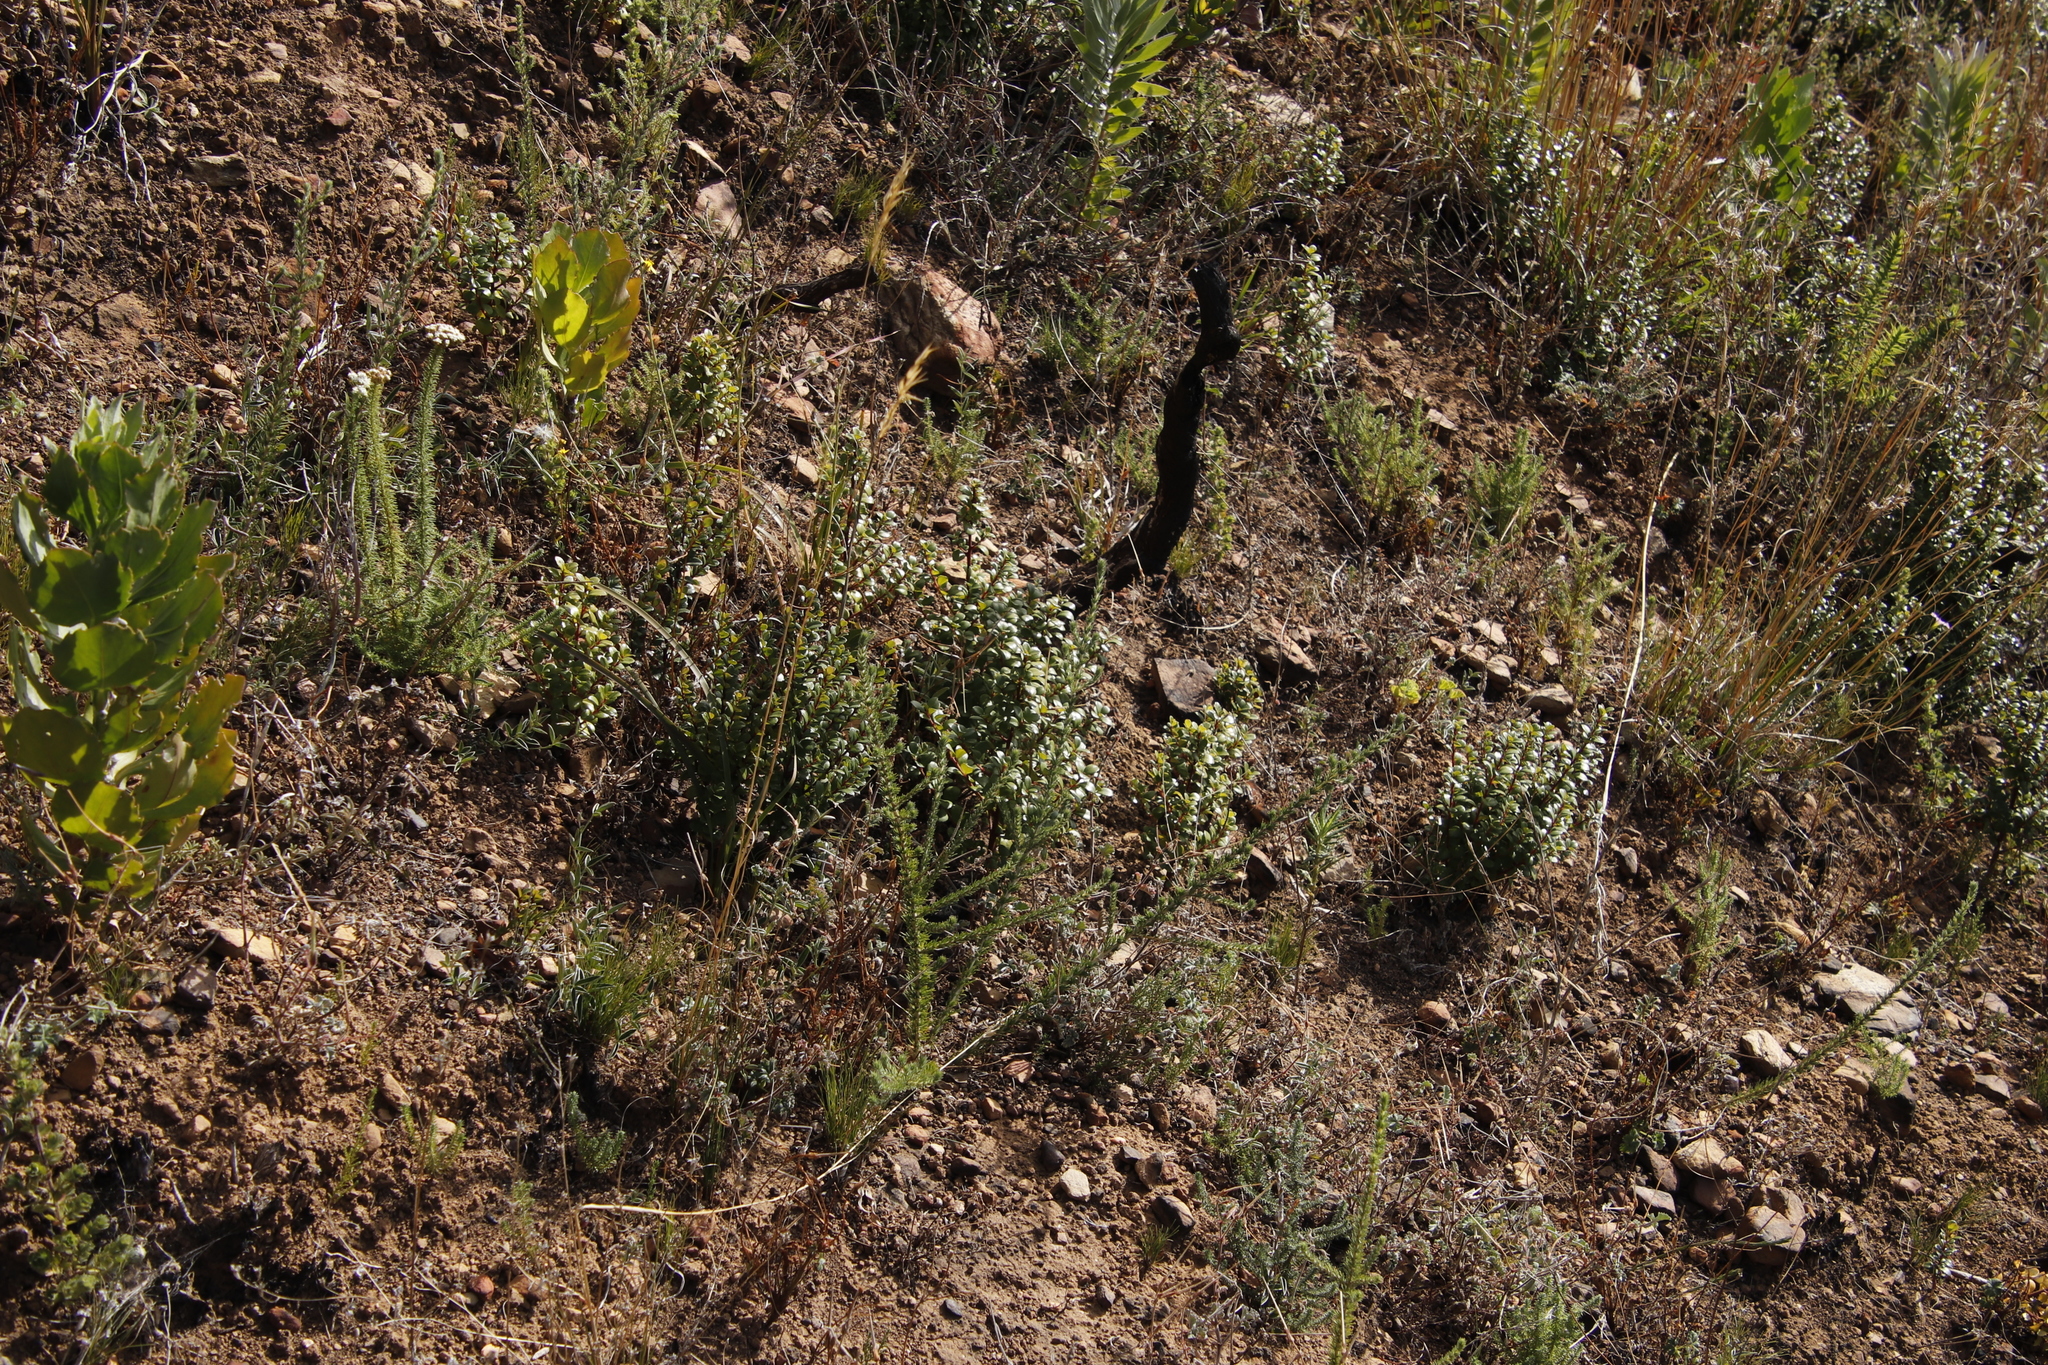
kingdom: Plantae
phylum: Tracheophyta
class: Magnoliopsida
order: Ericales
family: Primulaceae
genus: Myrsine
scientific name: Myrsine africana
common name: African-boxwood
